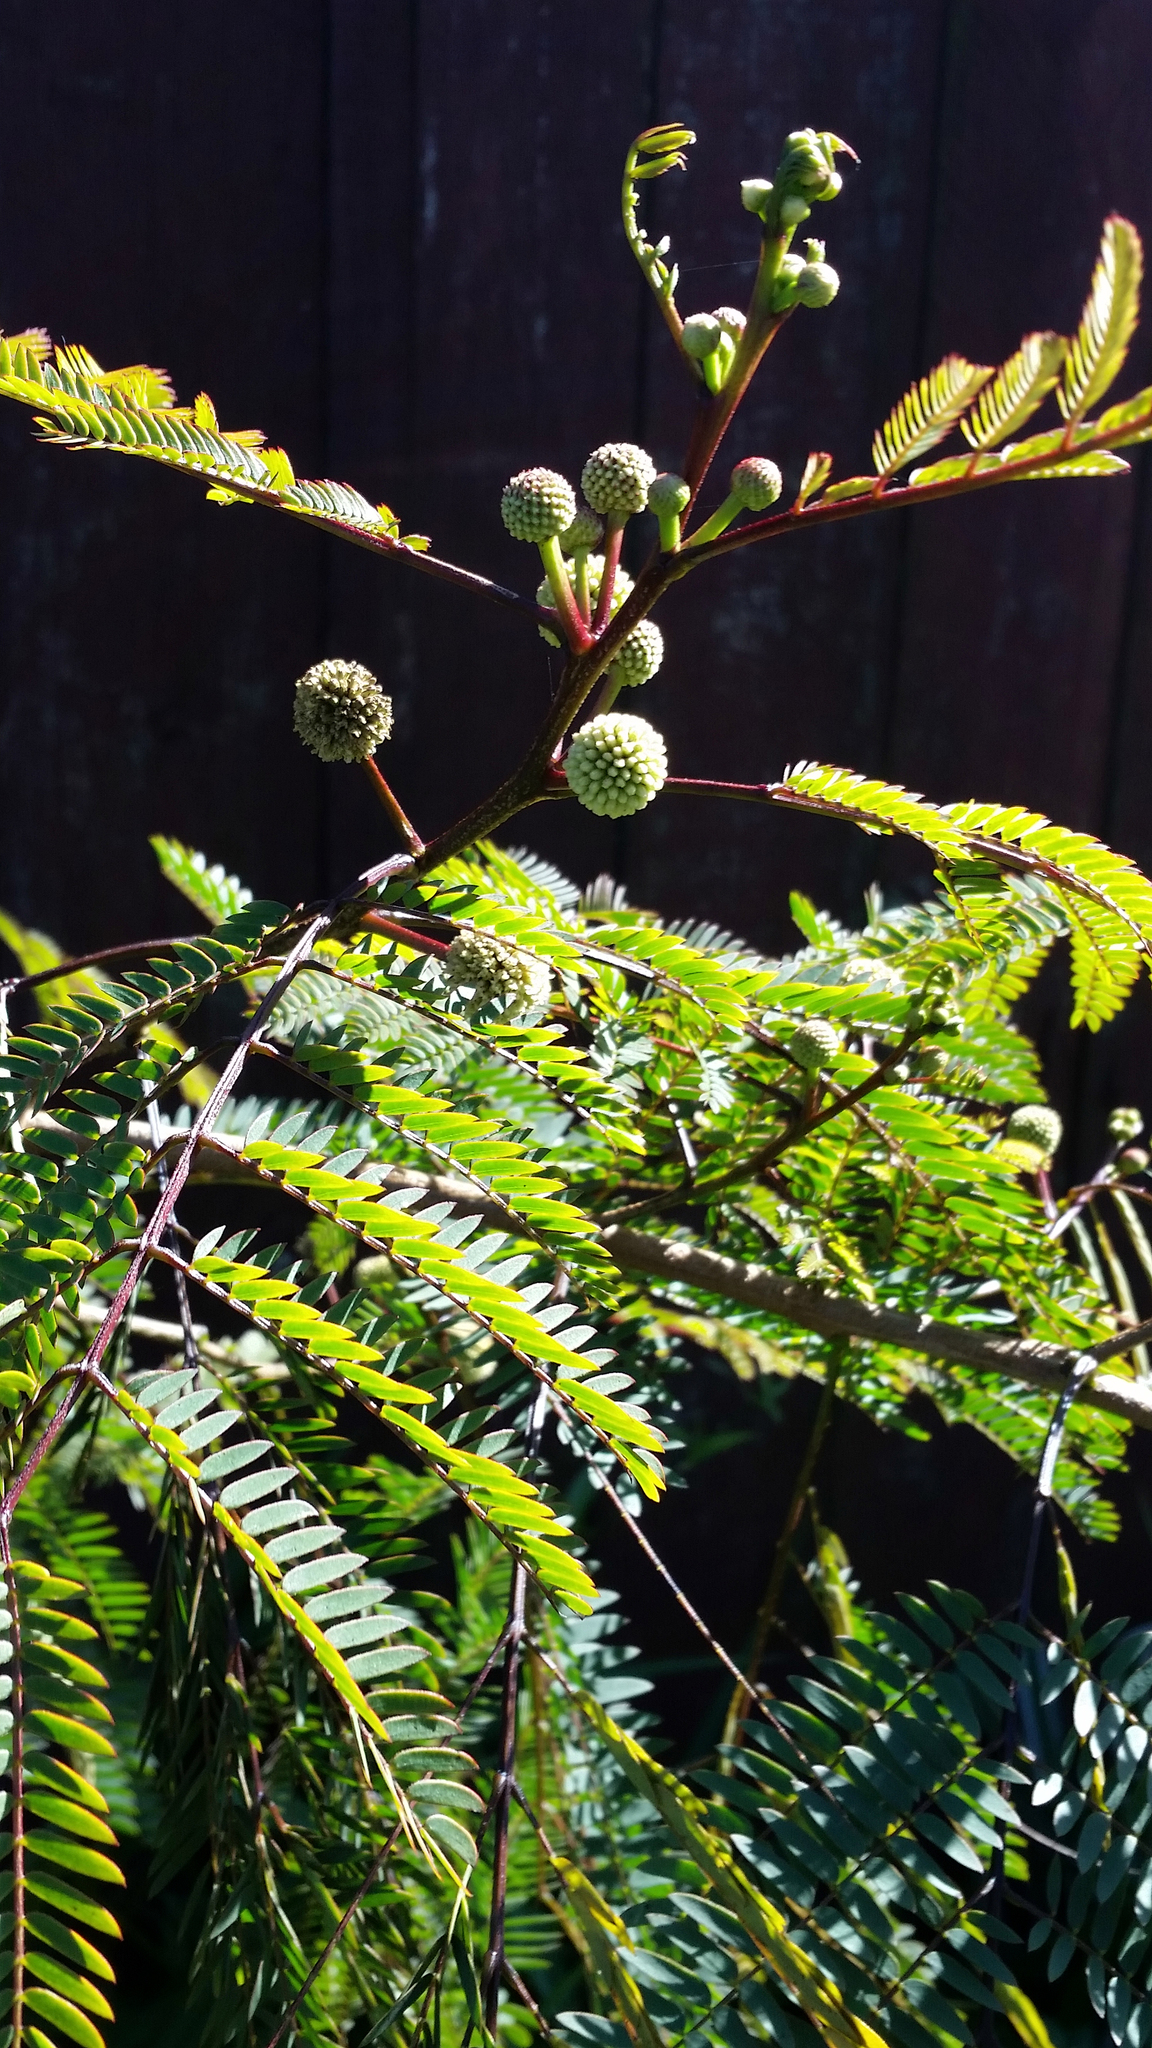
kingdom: Plantae
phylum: Tracheophyta
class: Magnoliopsida
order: Fabales
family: Fabaceae
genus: Leucaena
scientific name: Leucaena leucocephala
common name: White leadtree
